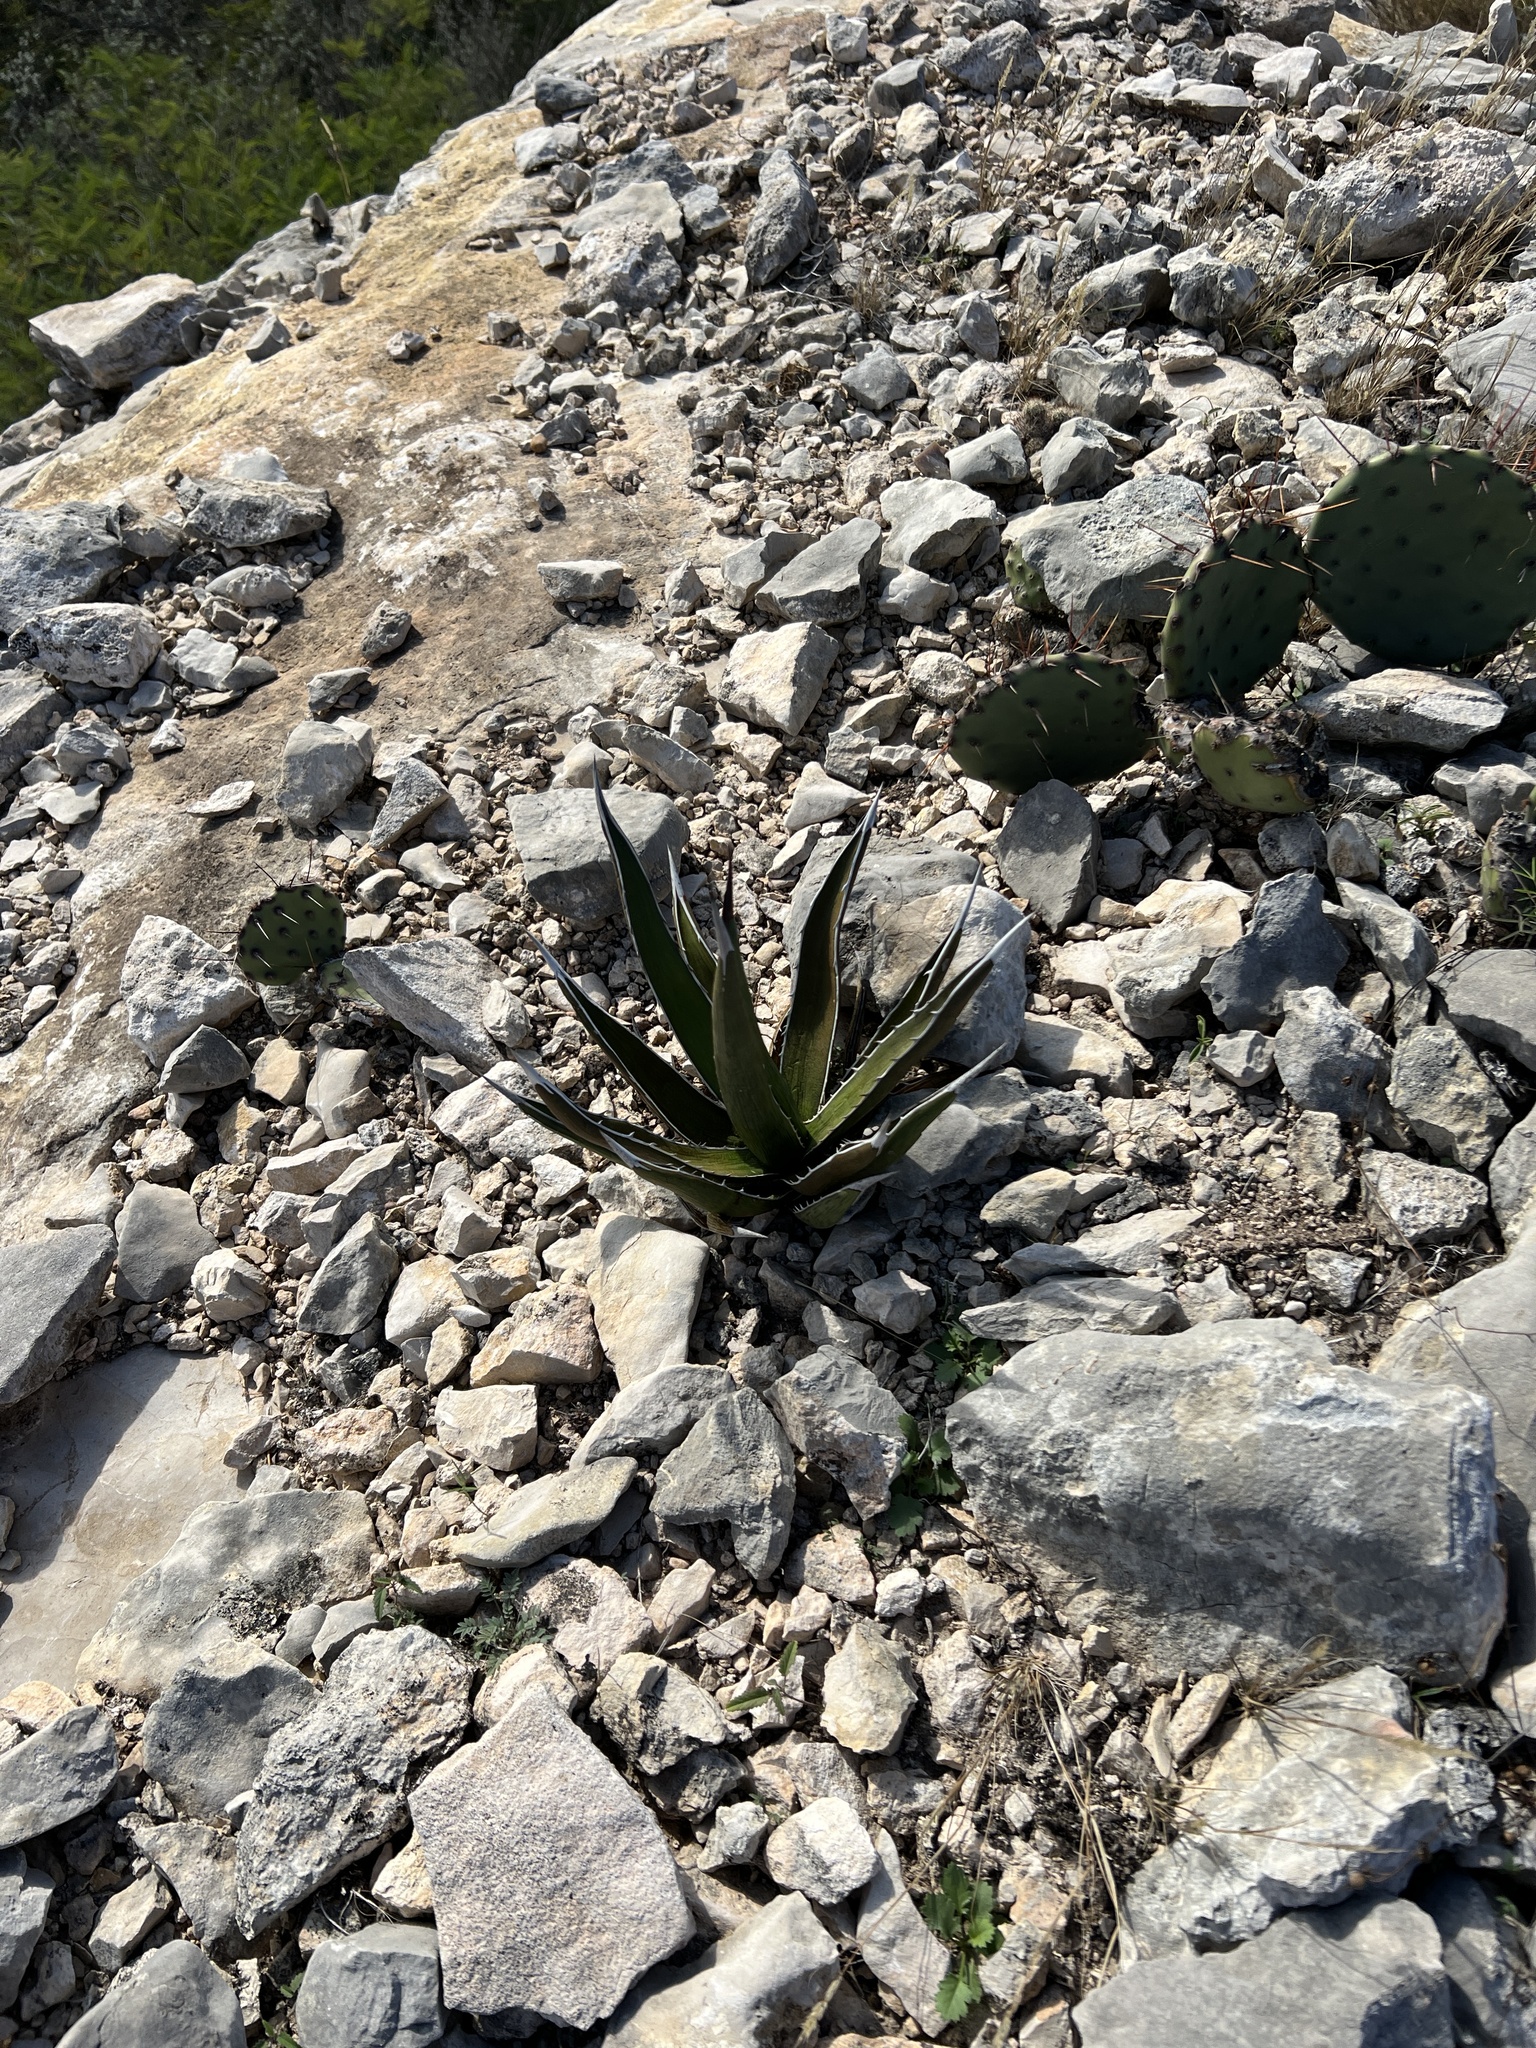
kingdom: Plantae
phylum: Tracheophyta
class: Liliopsida
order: Asparagales
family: Asparagaceae
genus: Agave
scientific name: Agave lechuguilla
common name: Lecheguilla agave
